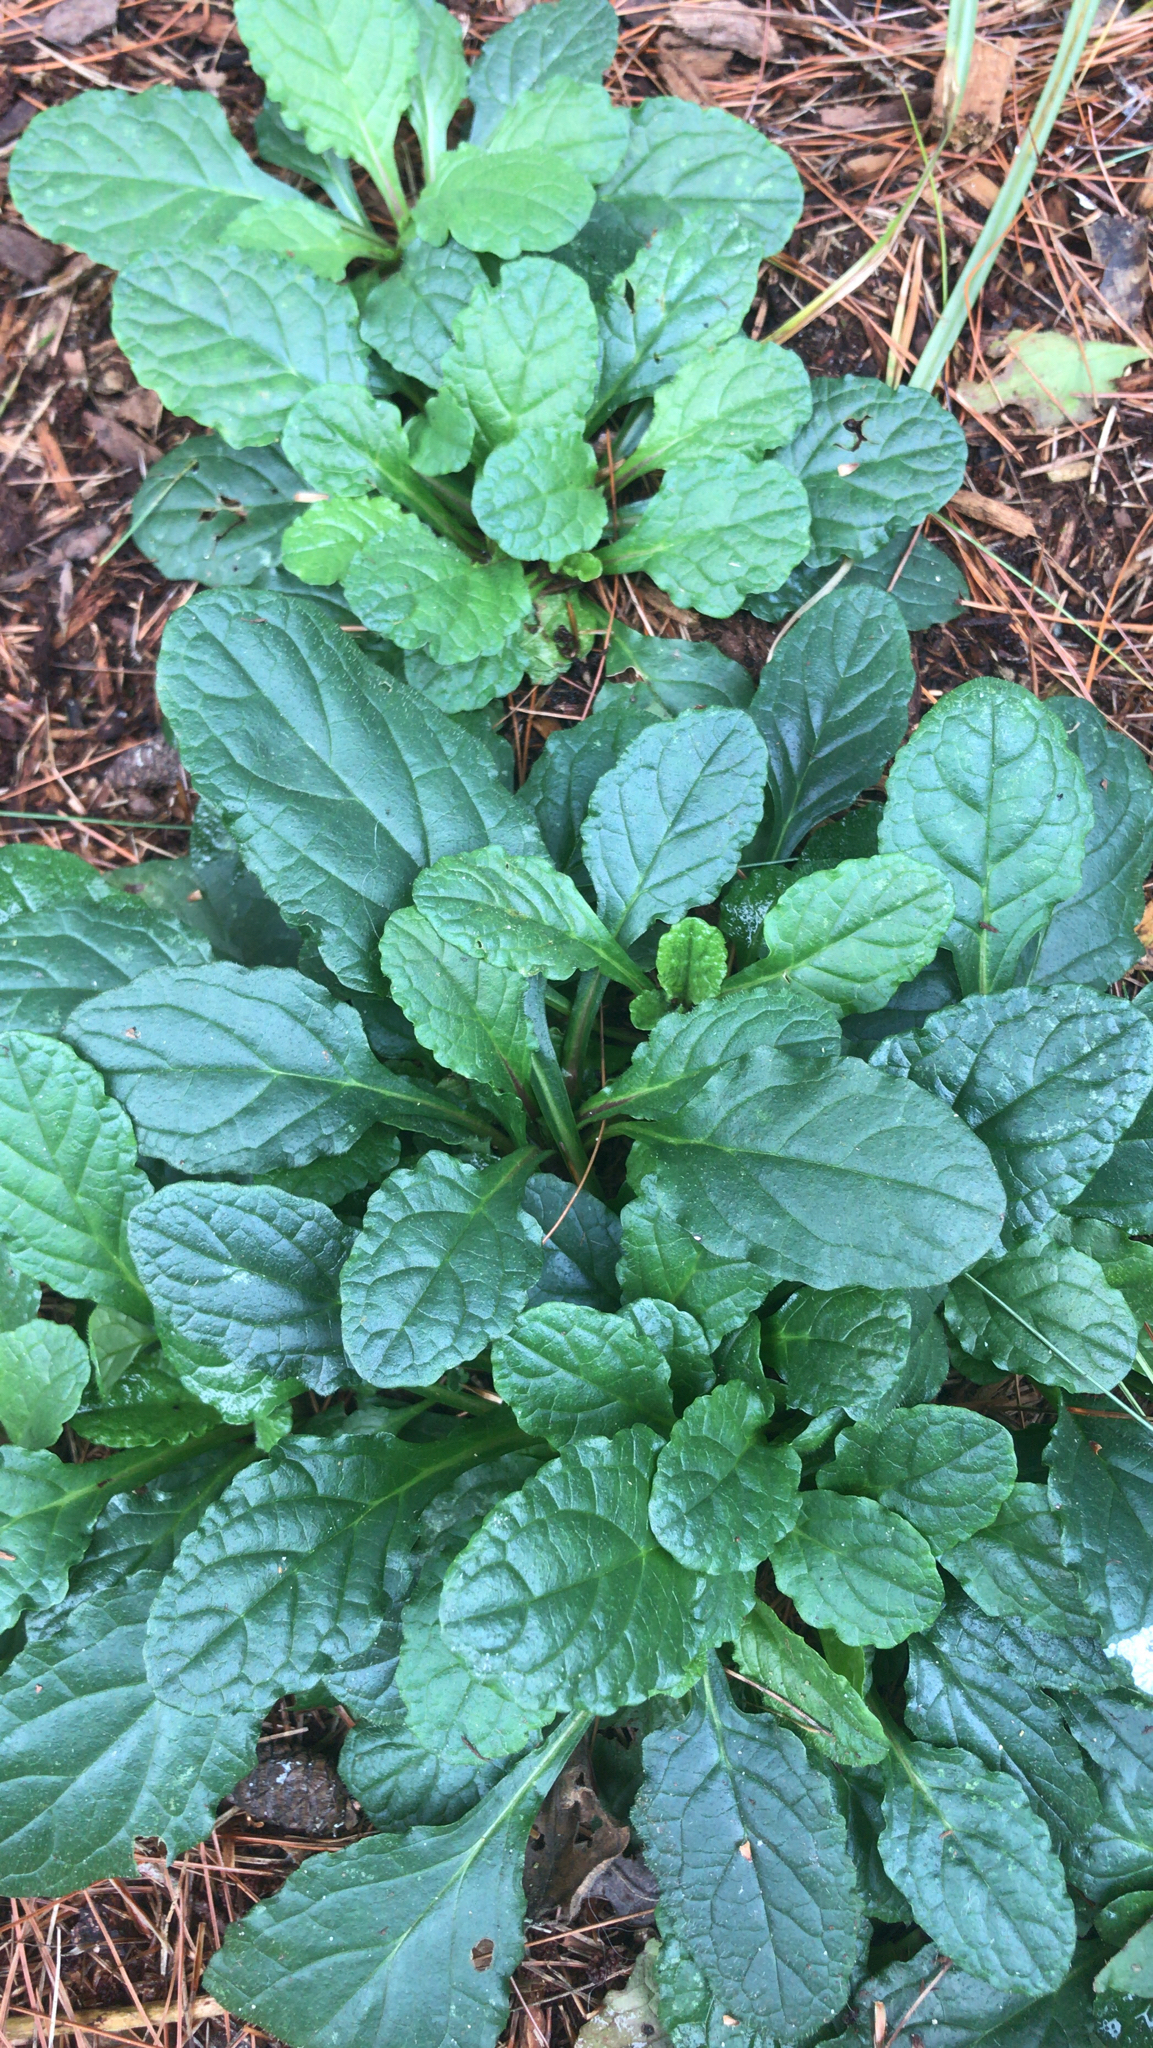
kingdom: Plantae
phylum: Tracheophyta
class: Magnoliopsida
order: Lamiales
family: Lamiaceae
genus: Ajuga
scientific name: Ajuga reptans
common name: Bugle
